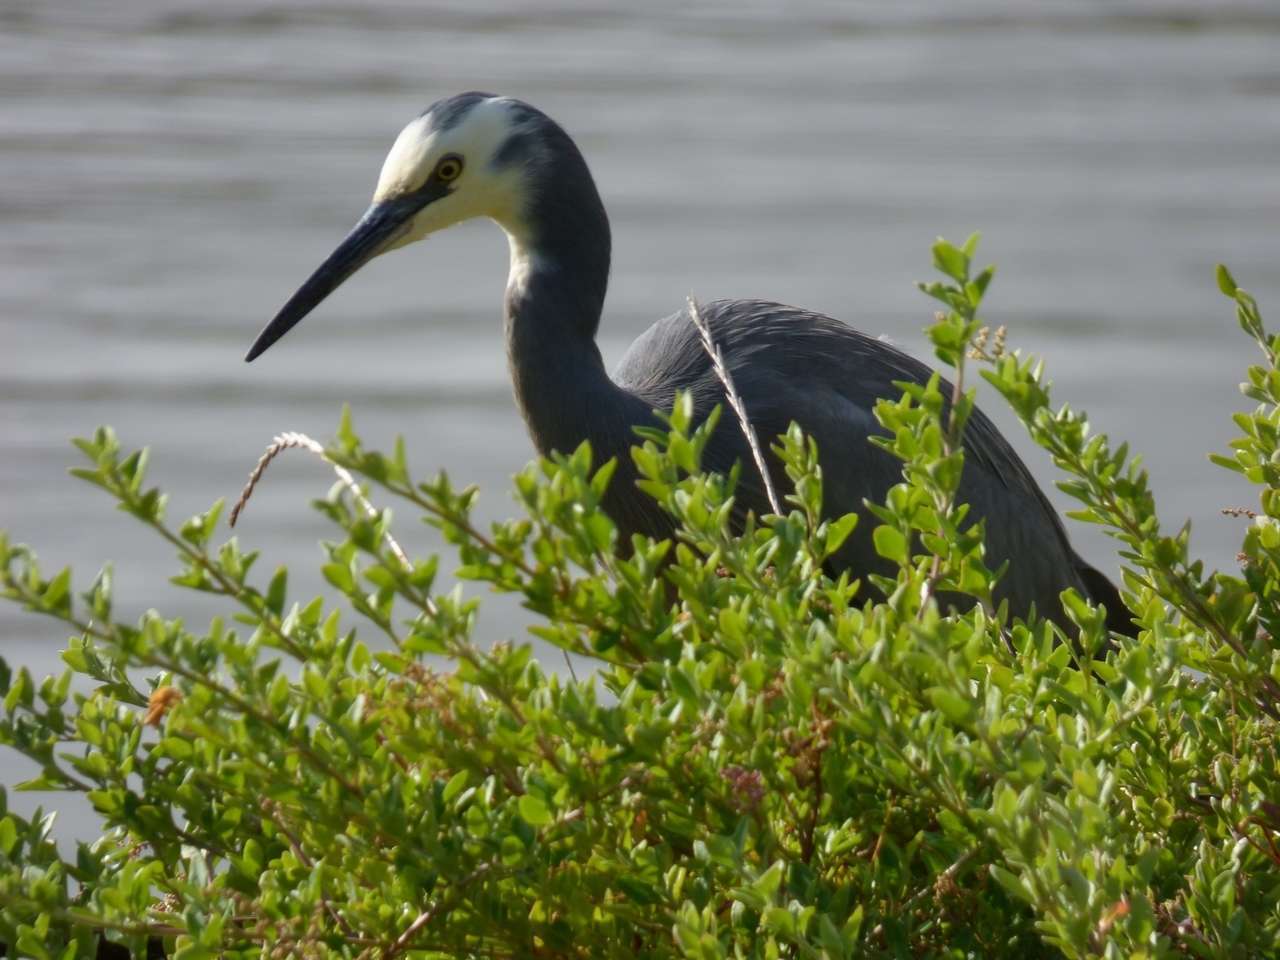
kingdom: Plantae
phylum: Tracheophyta
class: Magnoliopsida
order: Caryophyllales
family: Amaranthaceae
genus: Chenopodium
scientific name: Chenopodium candolleanum
